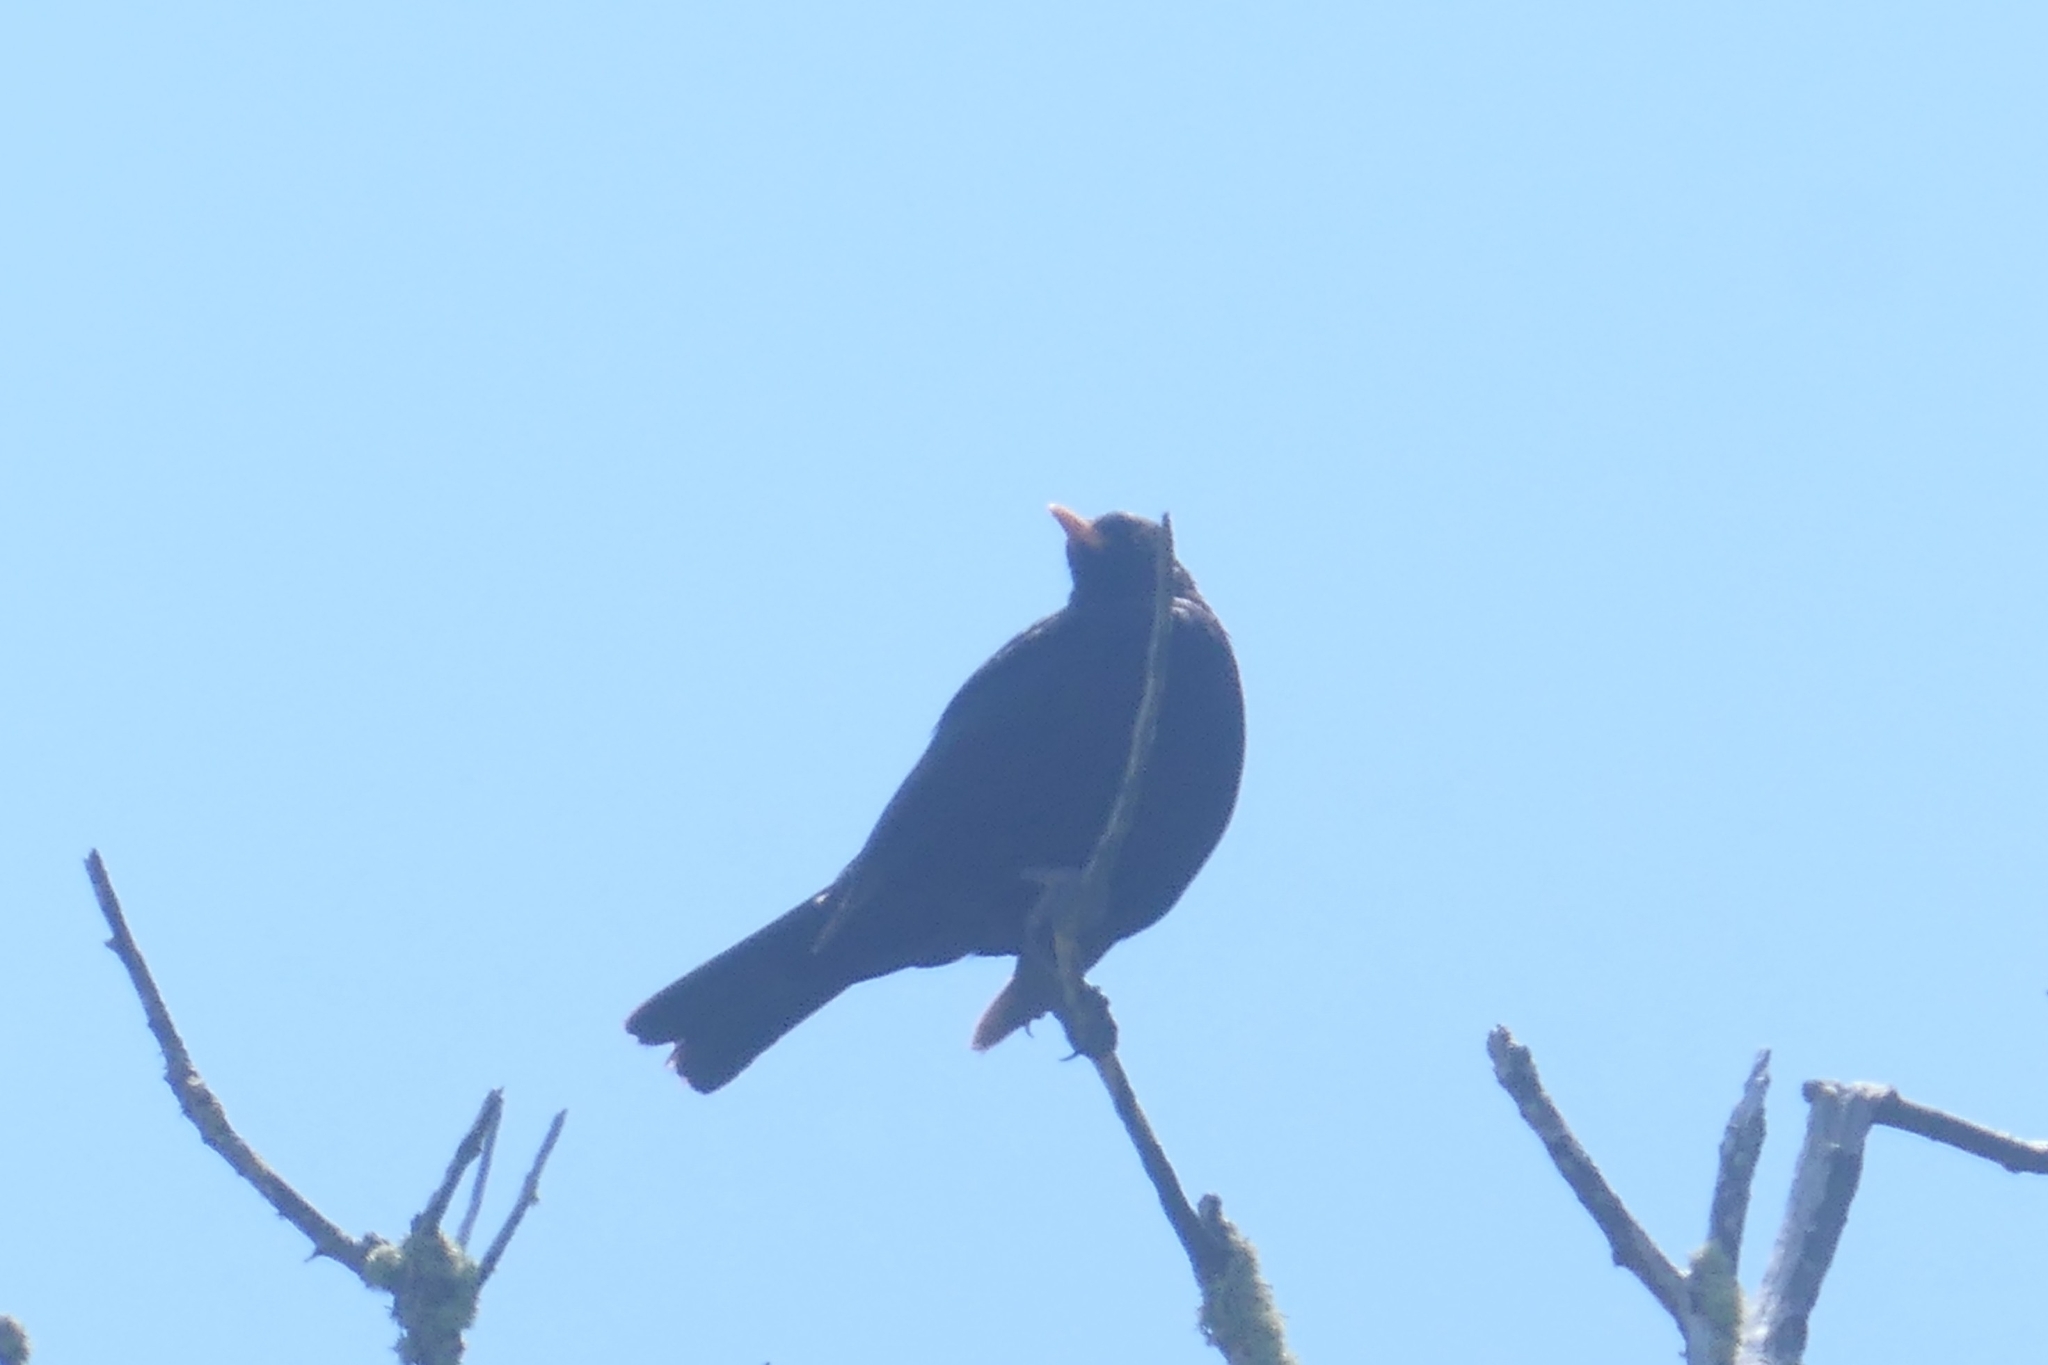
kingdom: Animalia
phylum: Chordata
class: Aves
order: Passeriformes
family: Turdidae
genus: Turdus
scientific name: Turdus merula
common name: Common blackbird
